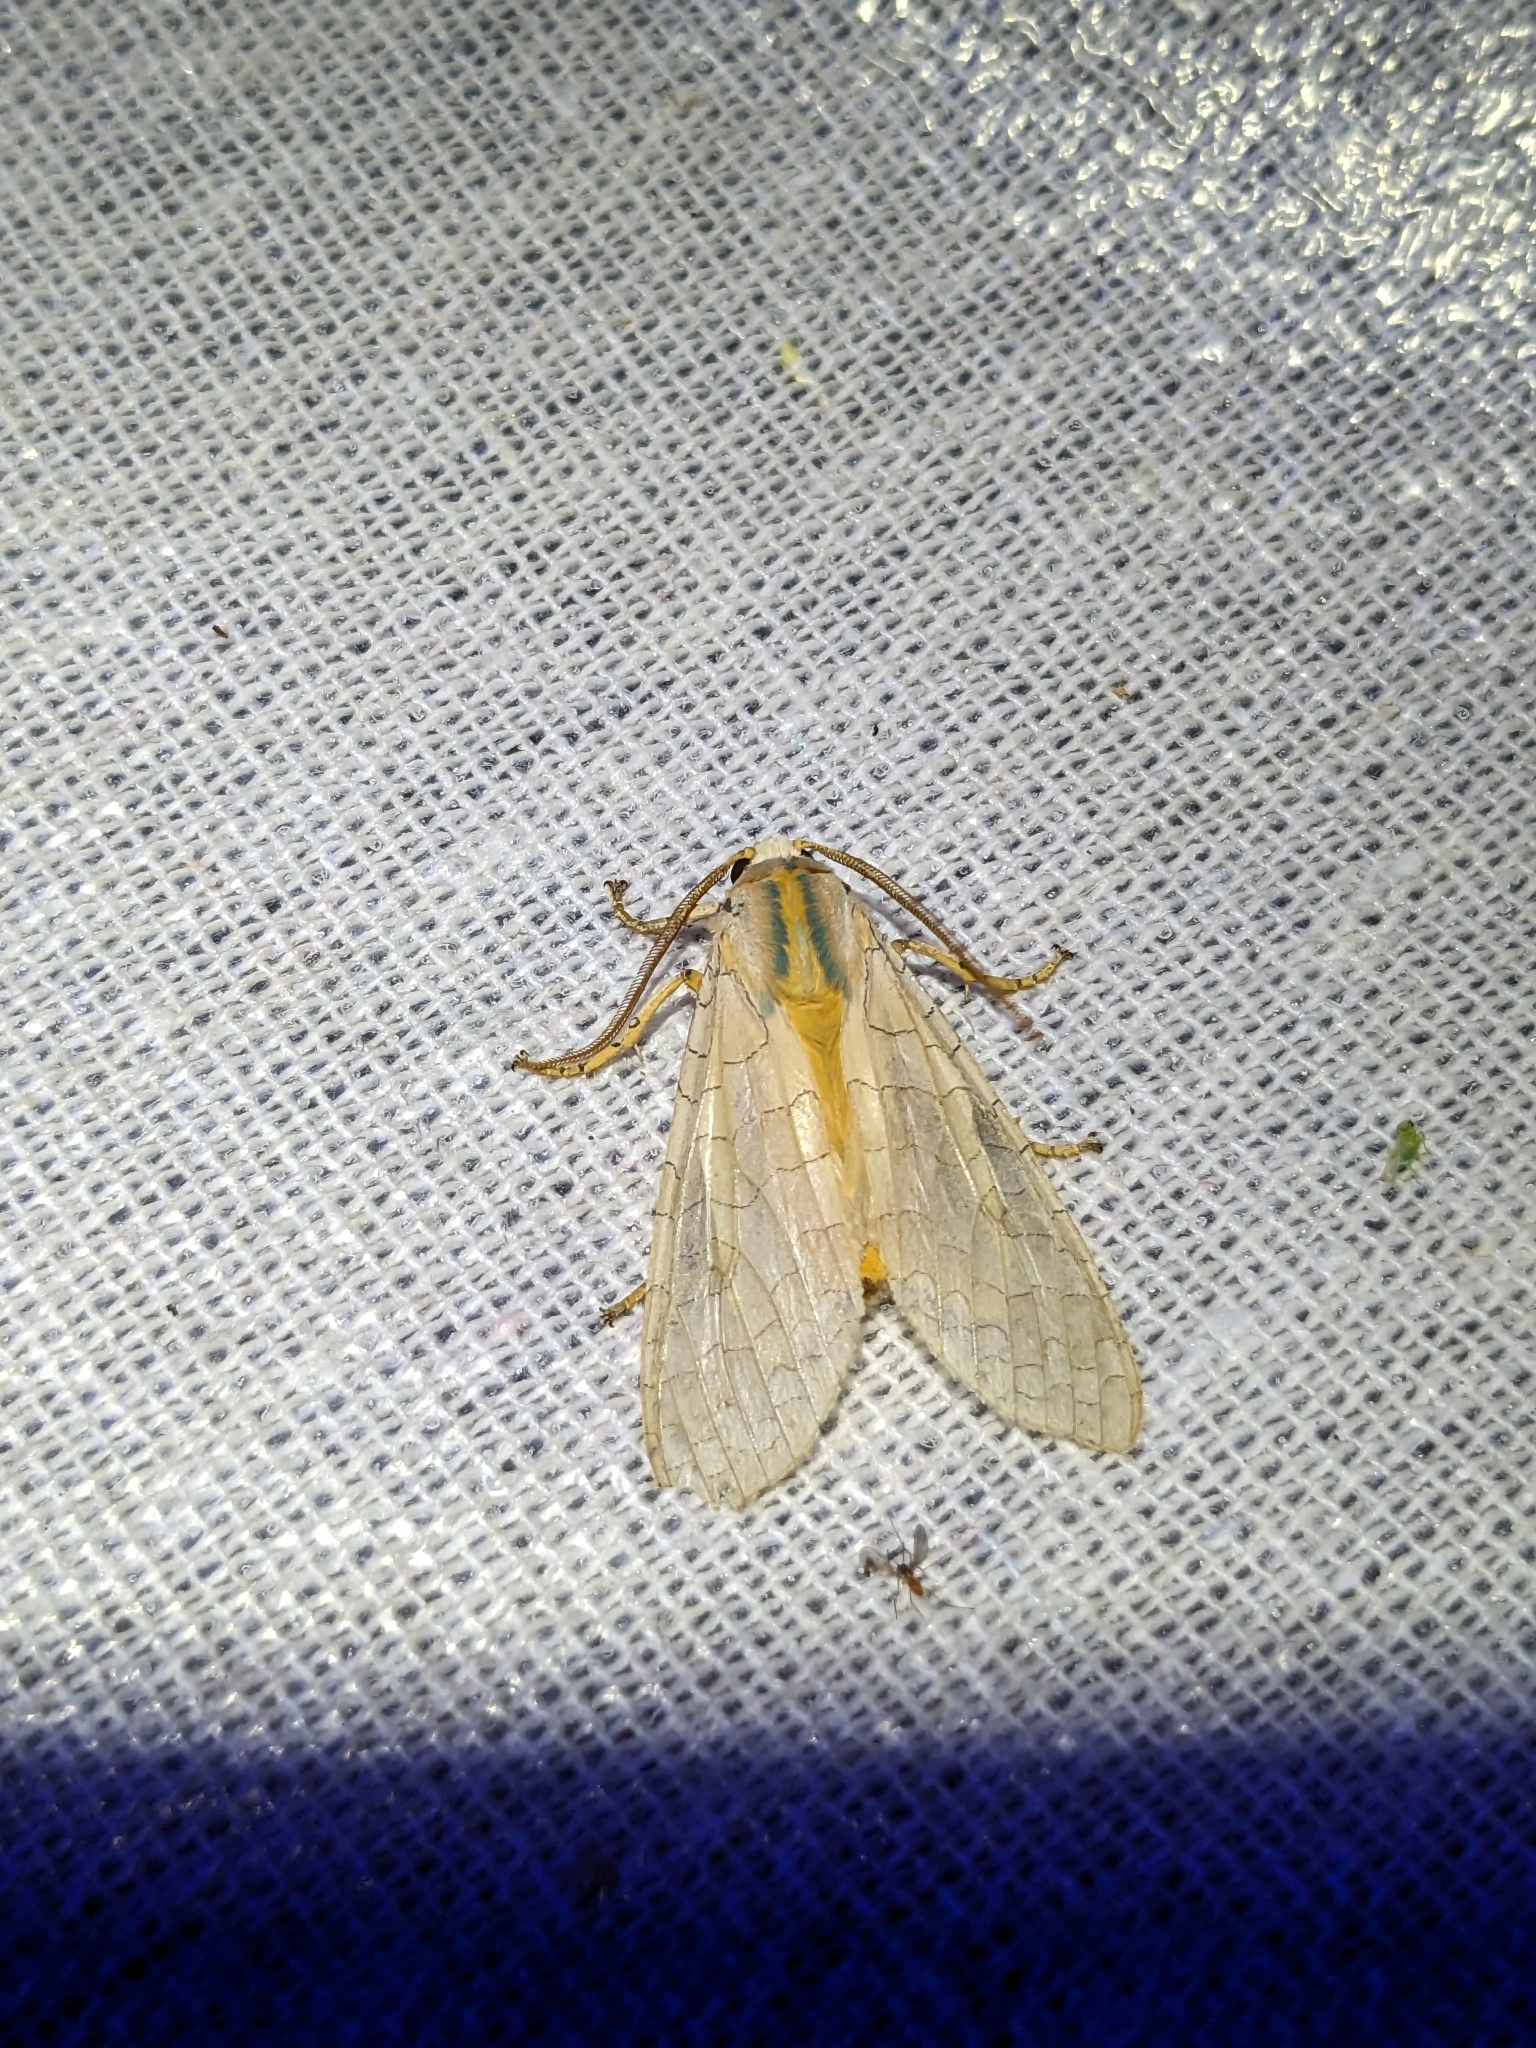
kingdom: Animalia
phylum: Arthropoda
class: Insecta
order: Lepidoptera
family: Erebidae
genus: Halysidota
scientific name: Halysidota
